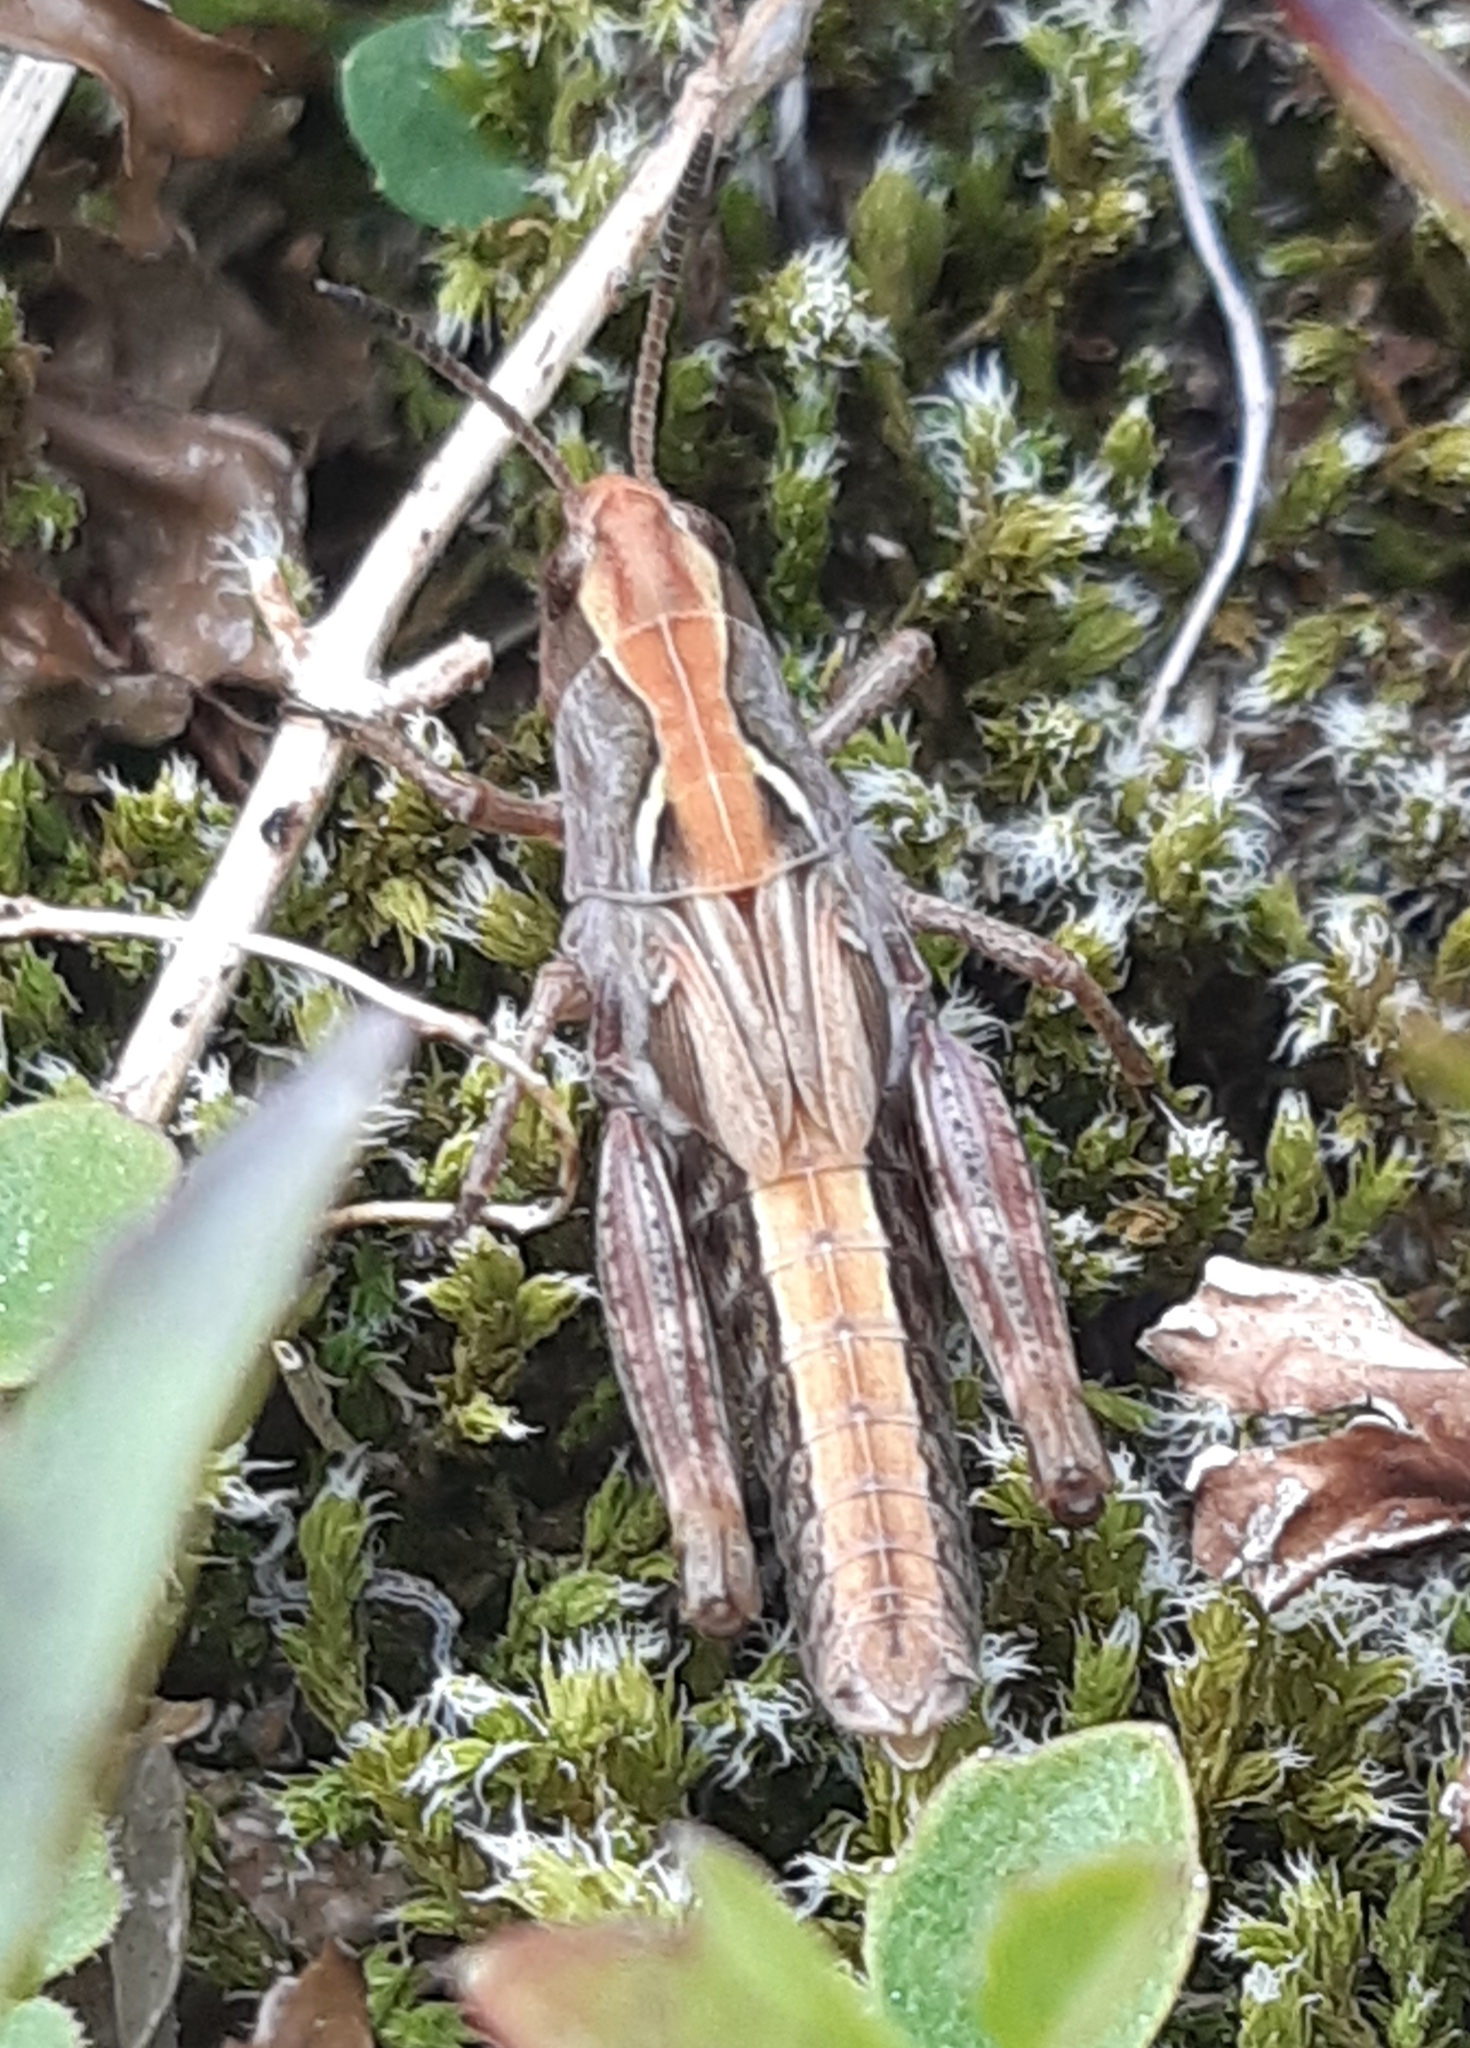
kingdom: Animalia
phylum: Arthropoda
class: Insecta
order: Orthoptera
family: Acrididae
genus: Gomphocerus
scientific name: Gomphocerus sibiricus
